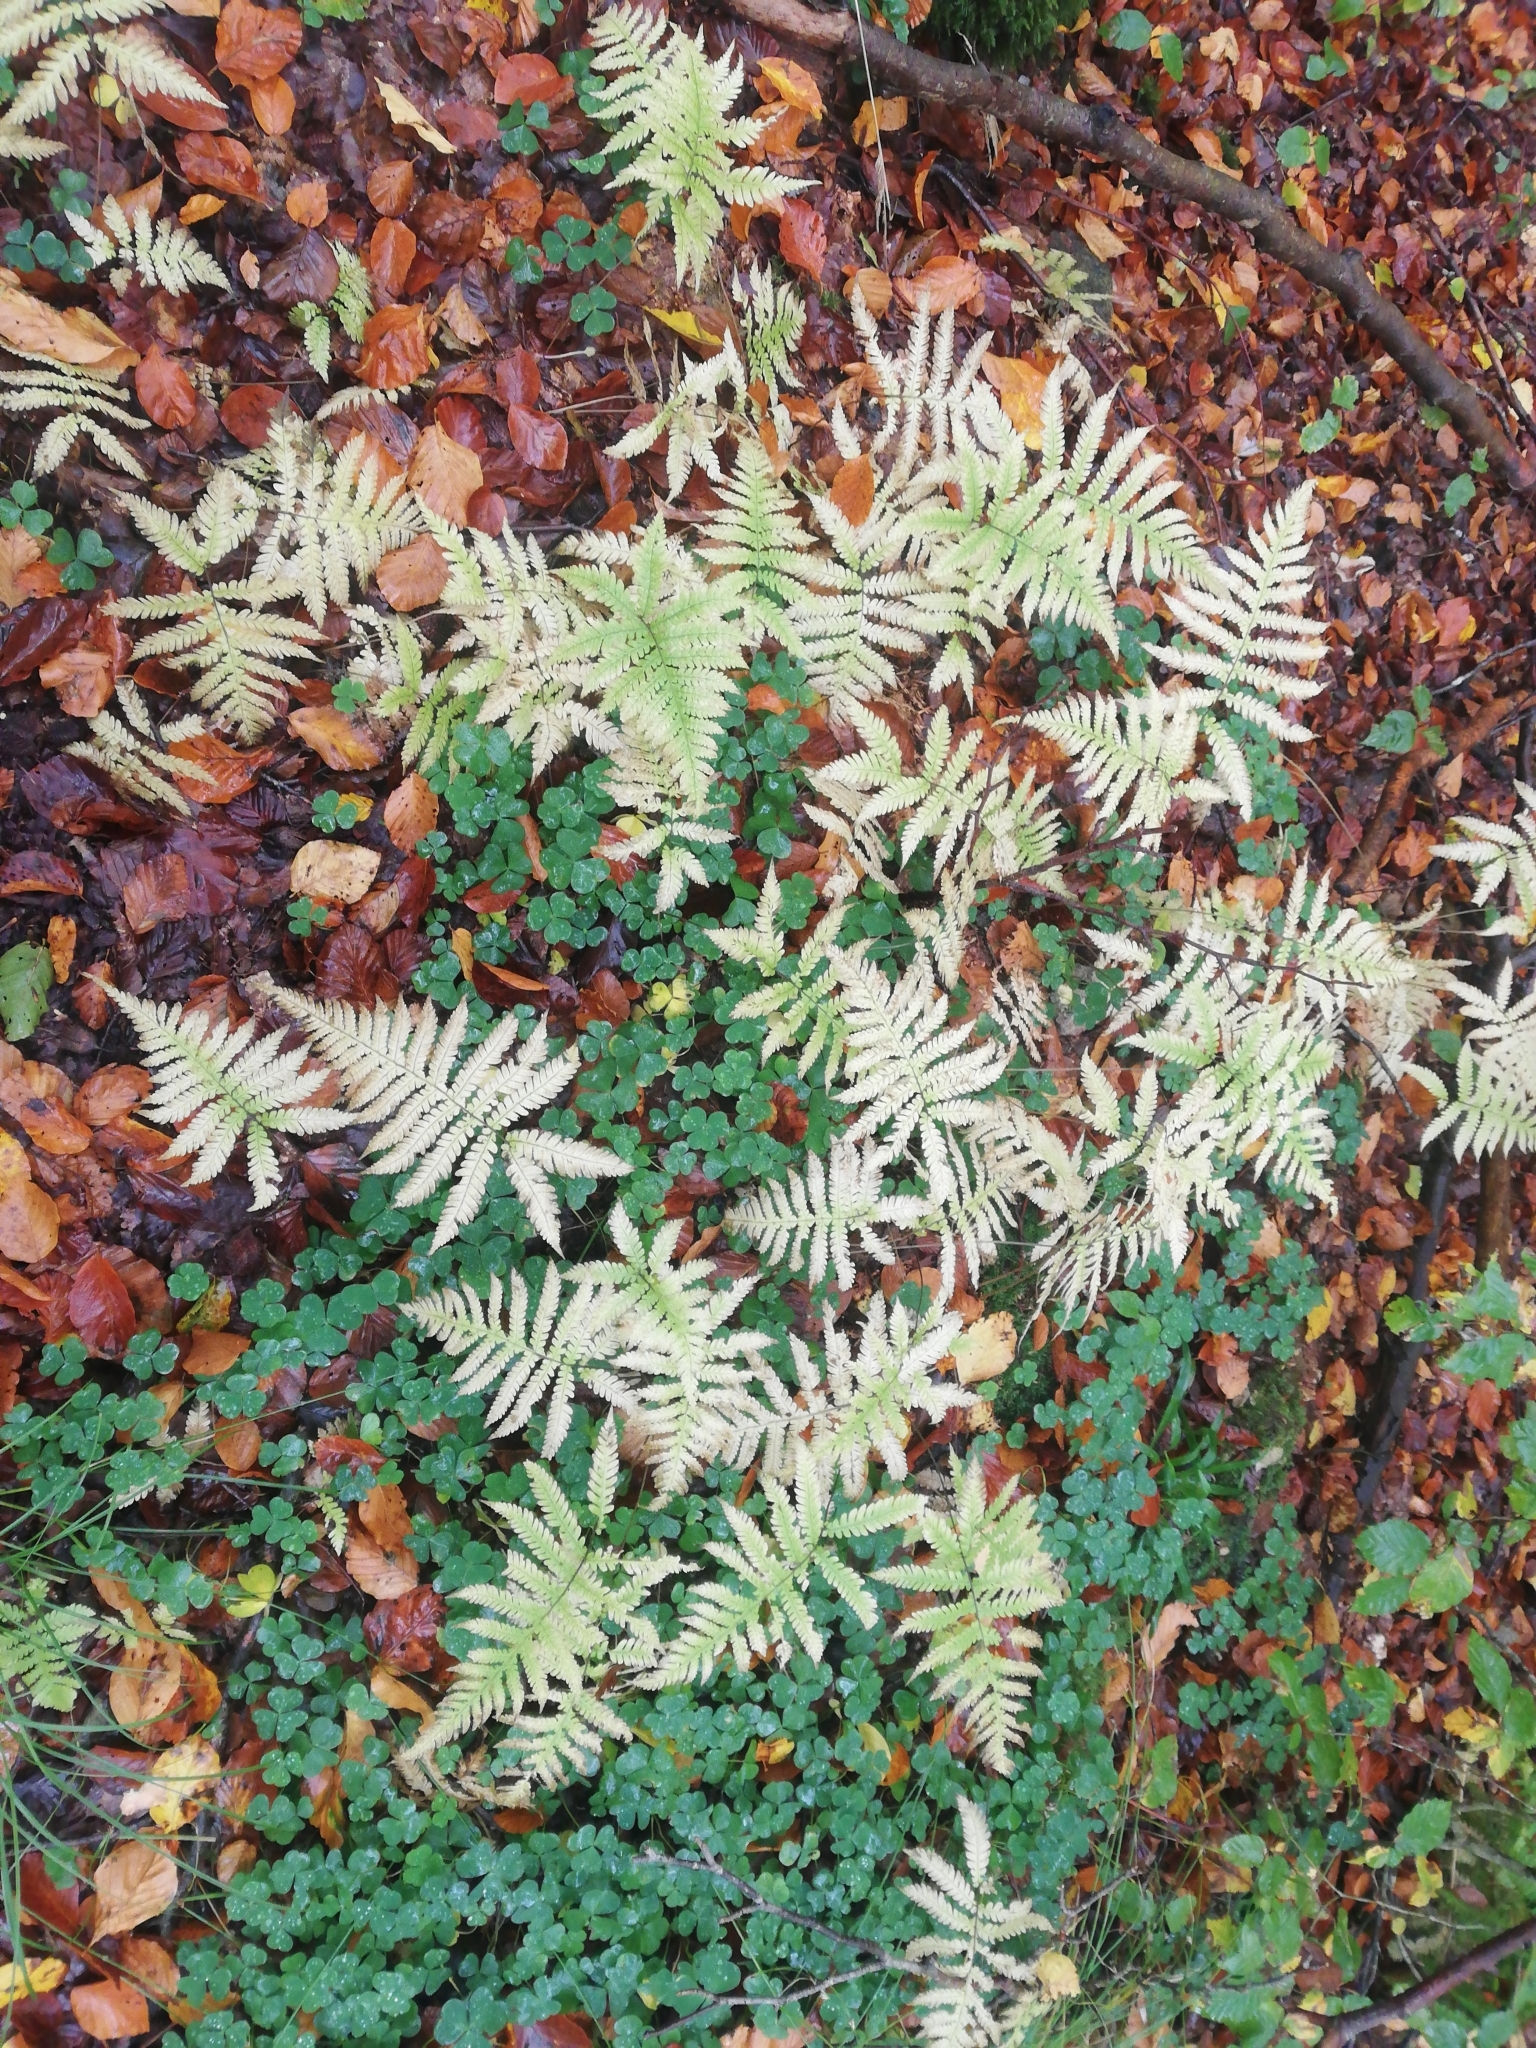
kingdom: Plantae
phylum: Tracheophyta
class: Polypodiopsida
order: Polypodiales
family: Thelypteridaceae
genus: Phegopteris
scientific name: Phegopteris connectilis
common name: Beech fern
